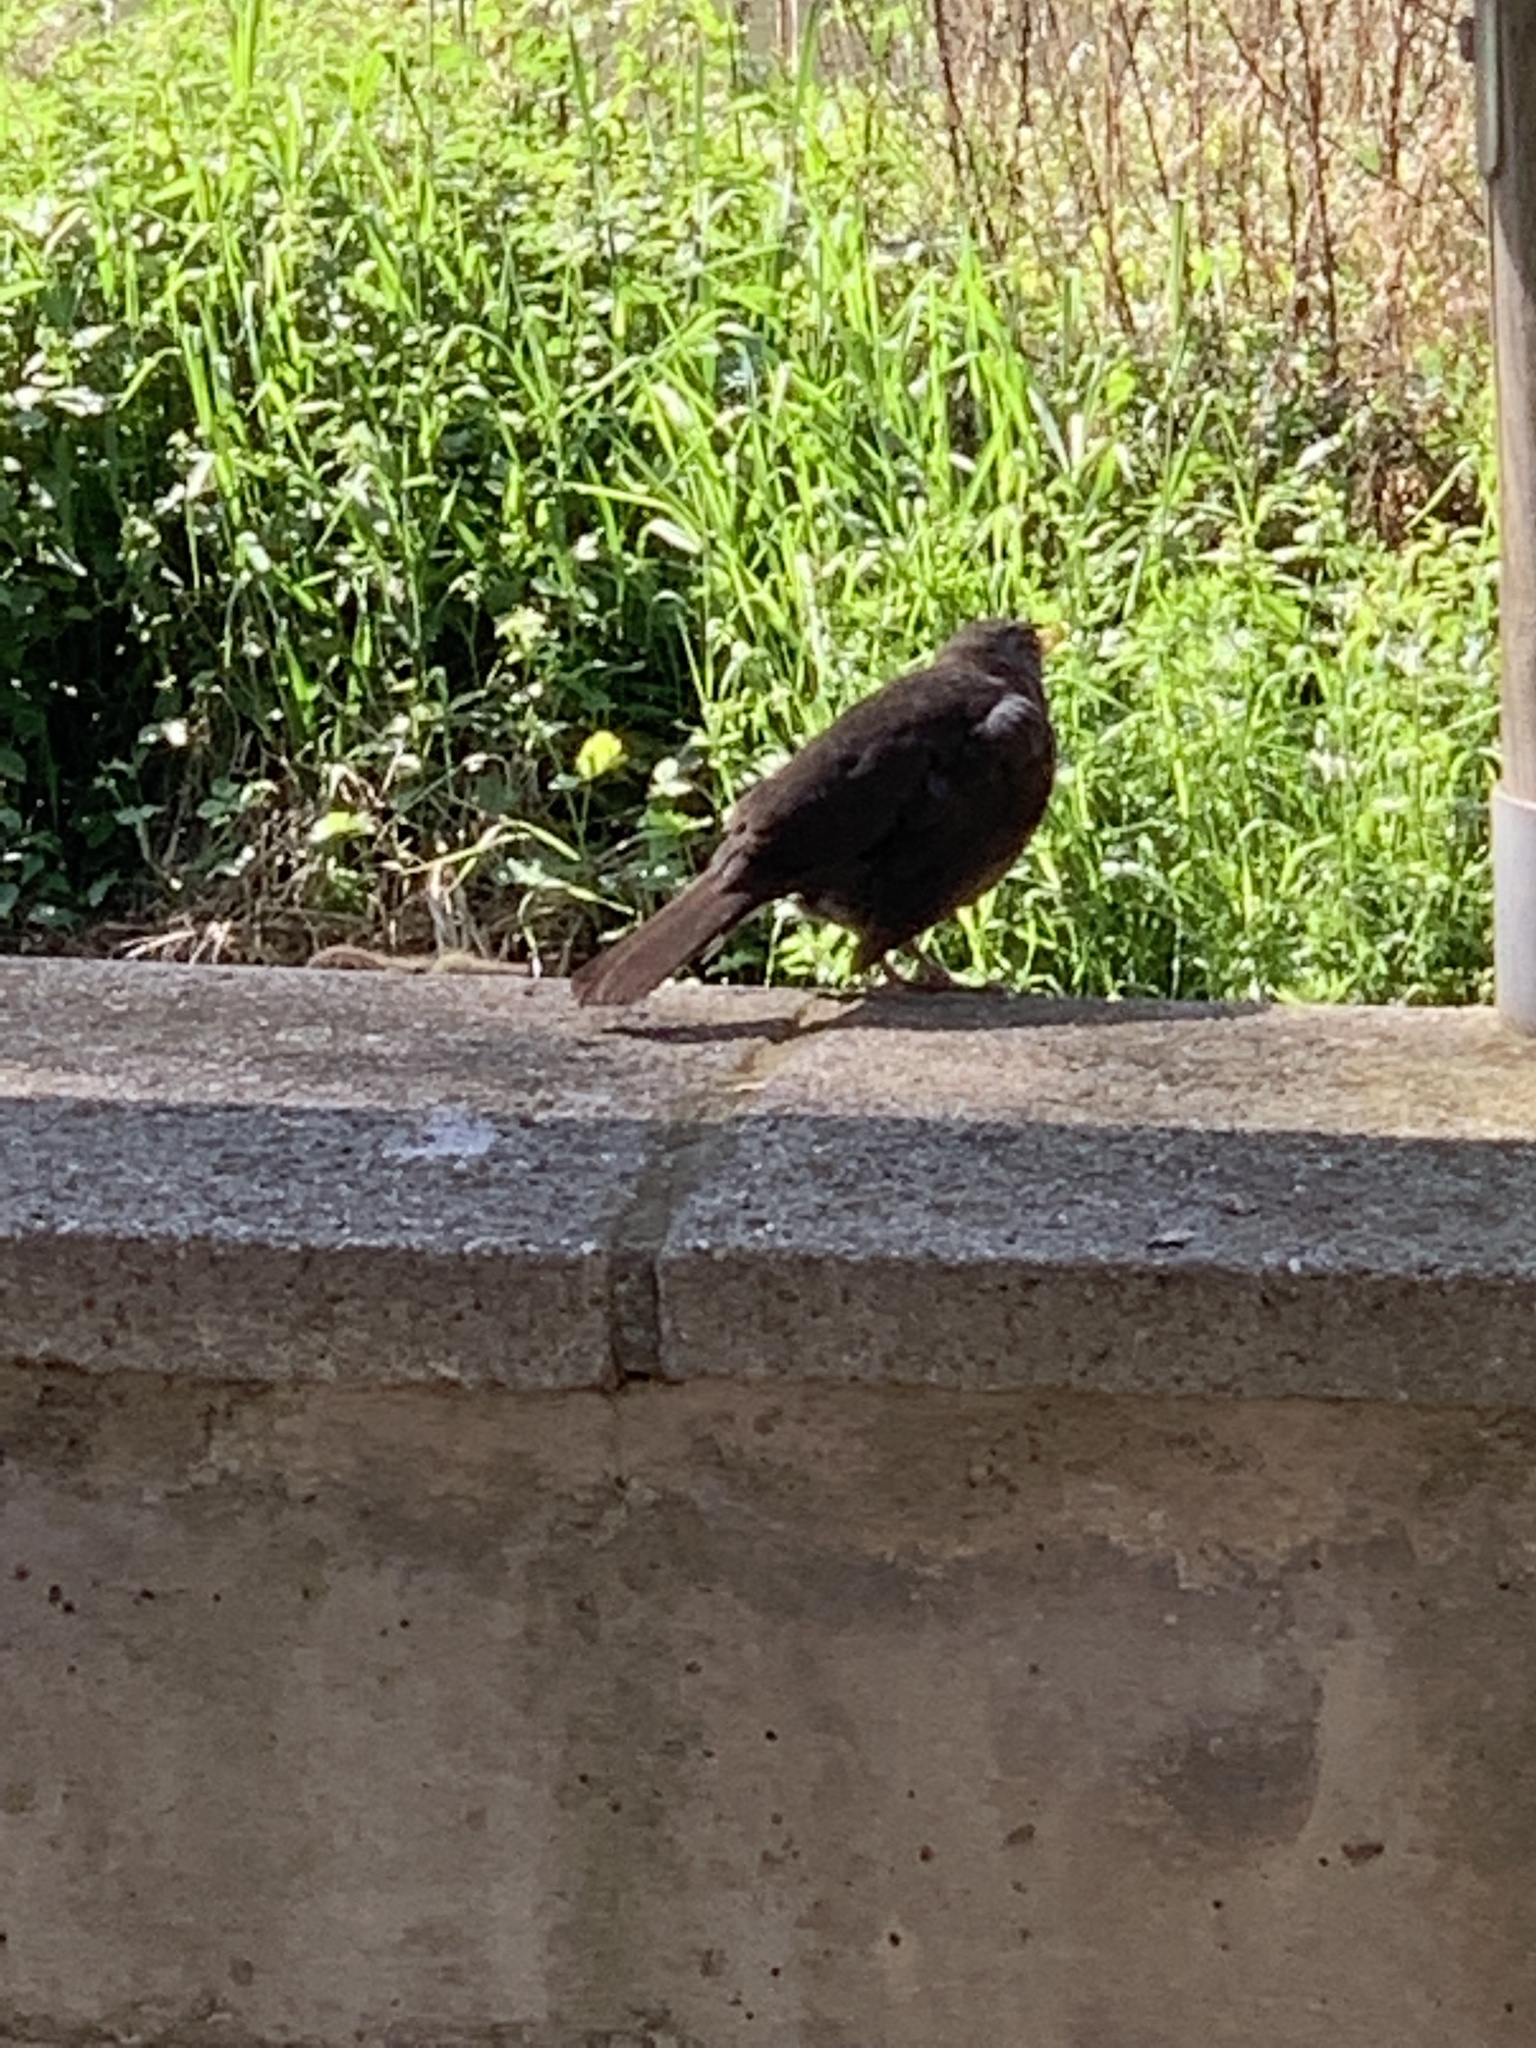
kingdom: Animalia
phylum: Chordata
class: Aves
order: Passeriformes
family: Turdidae
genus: Turdus
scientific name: Turdus merula
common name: Common blackbird
